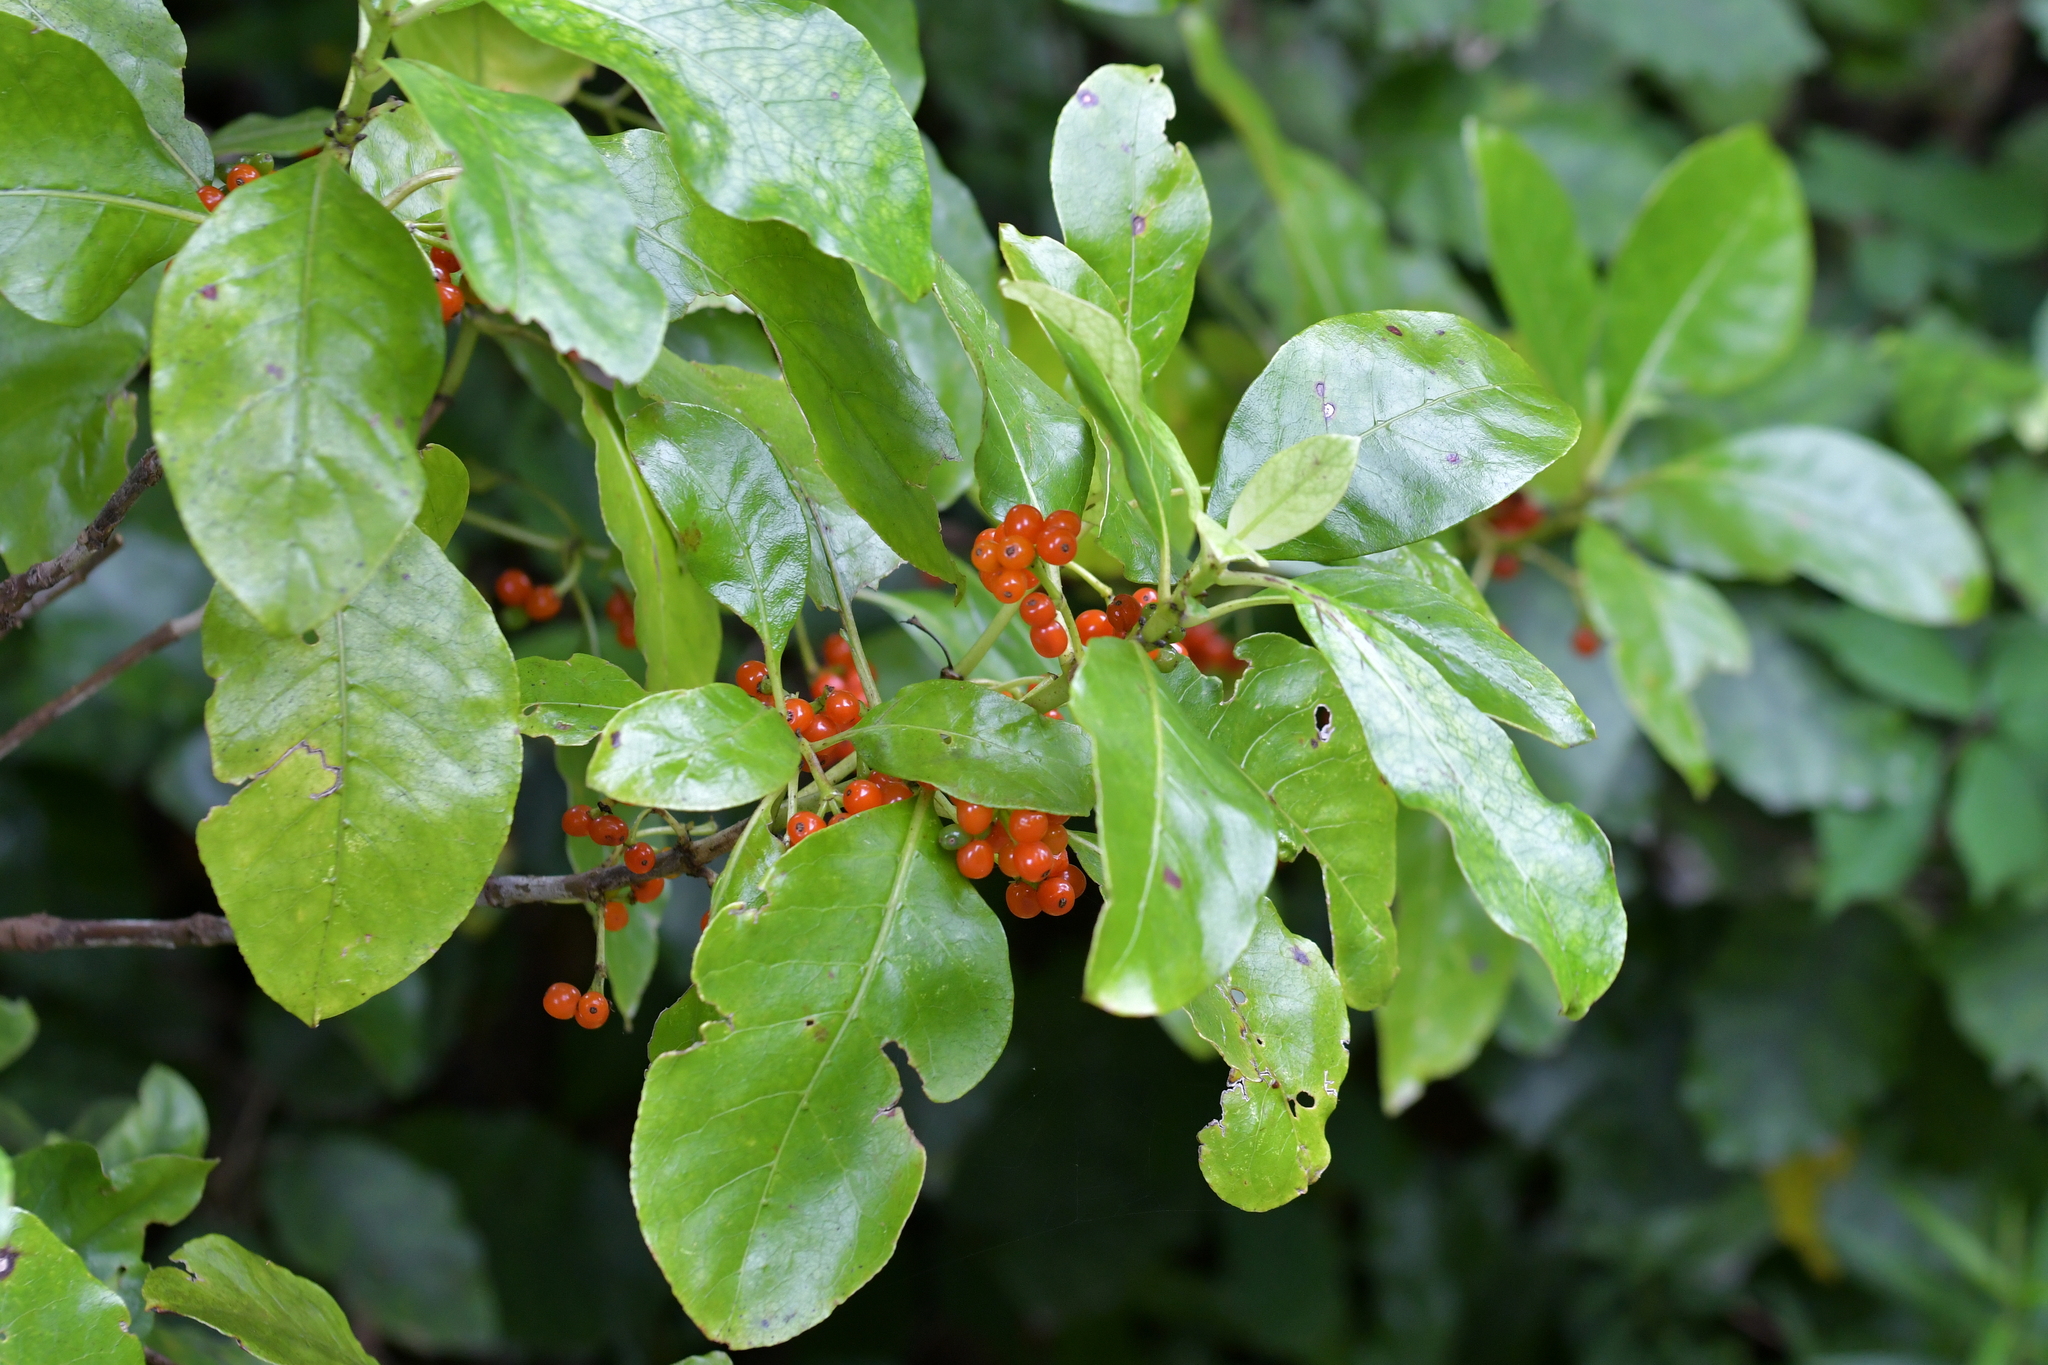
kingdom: Plantae
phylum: Tracheophyta
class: Magnoliopsida
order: Gentianales
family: Rubiaceae
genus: Coprosma
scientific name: Coprosma autumnalis
